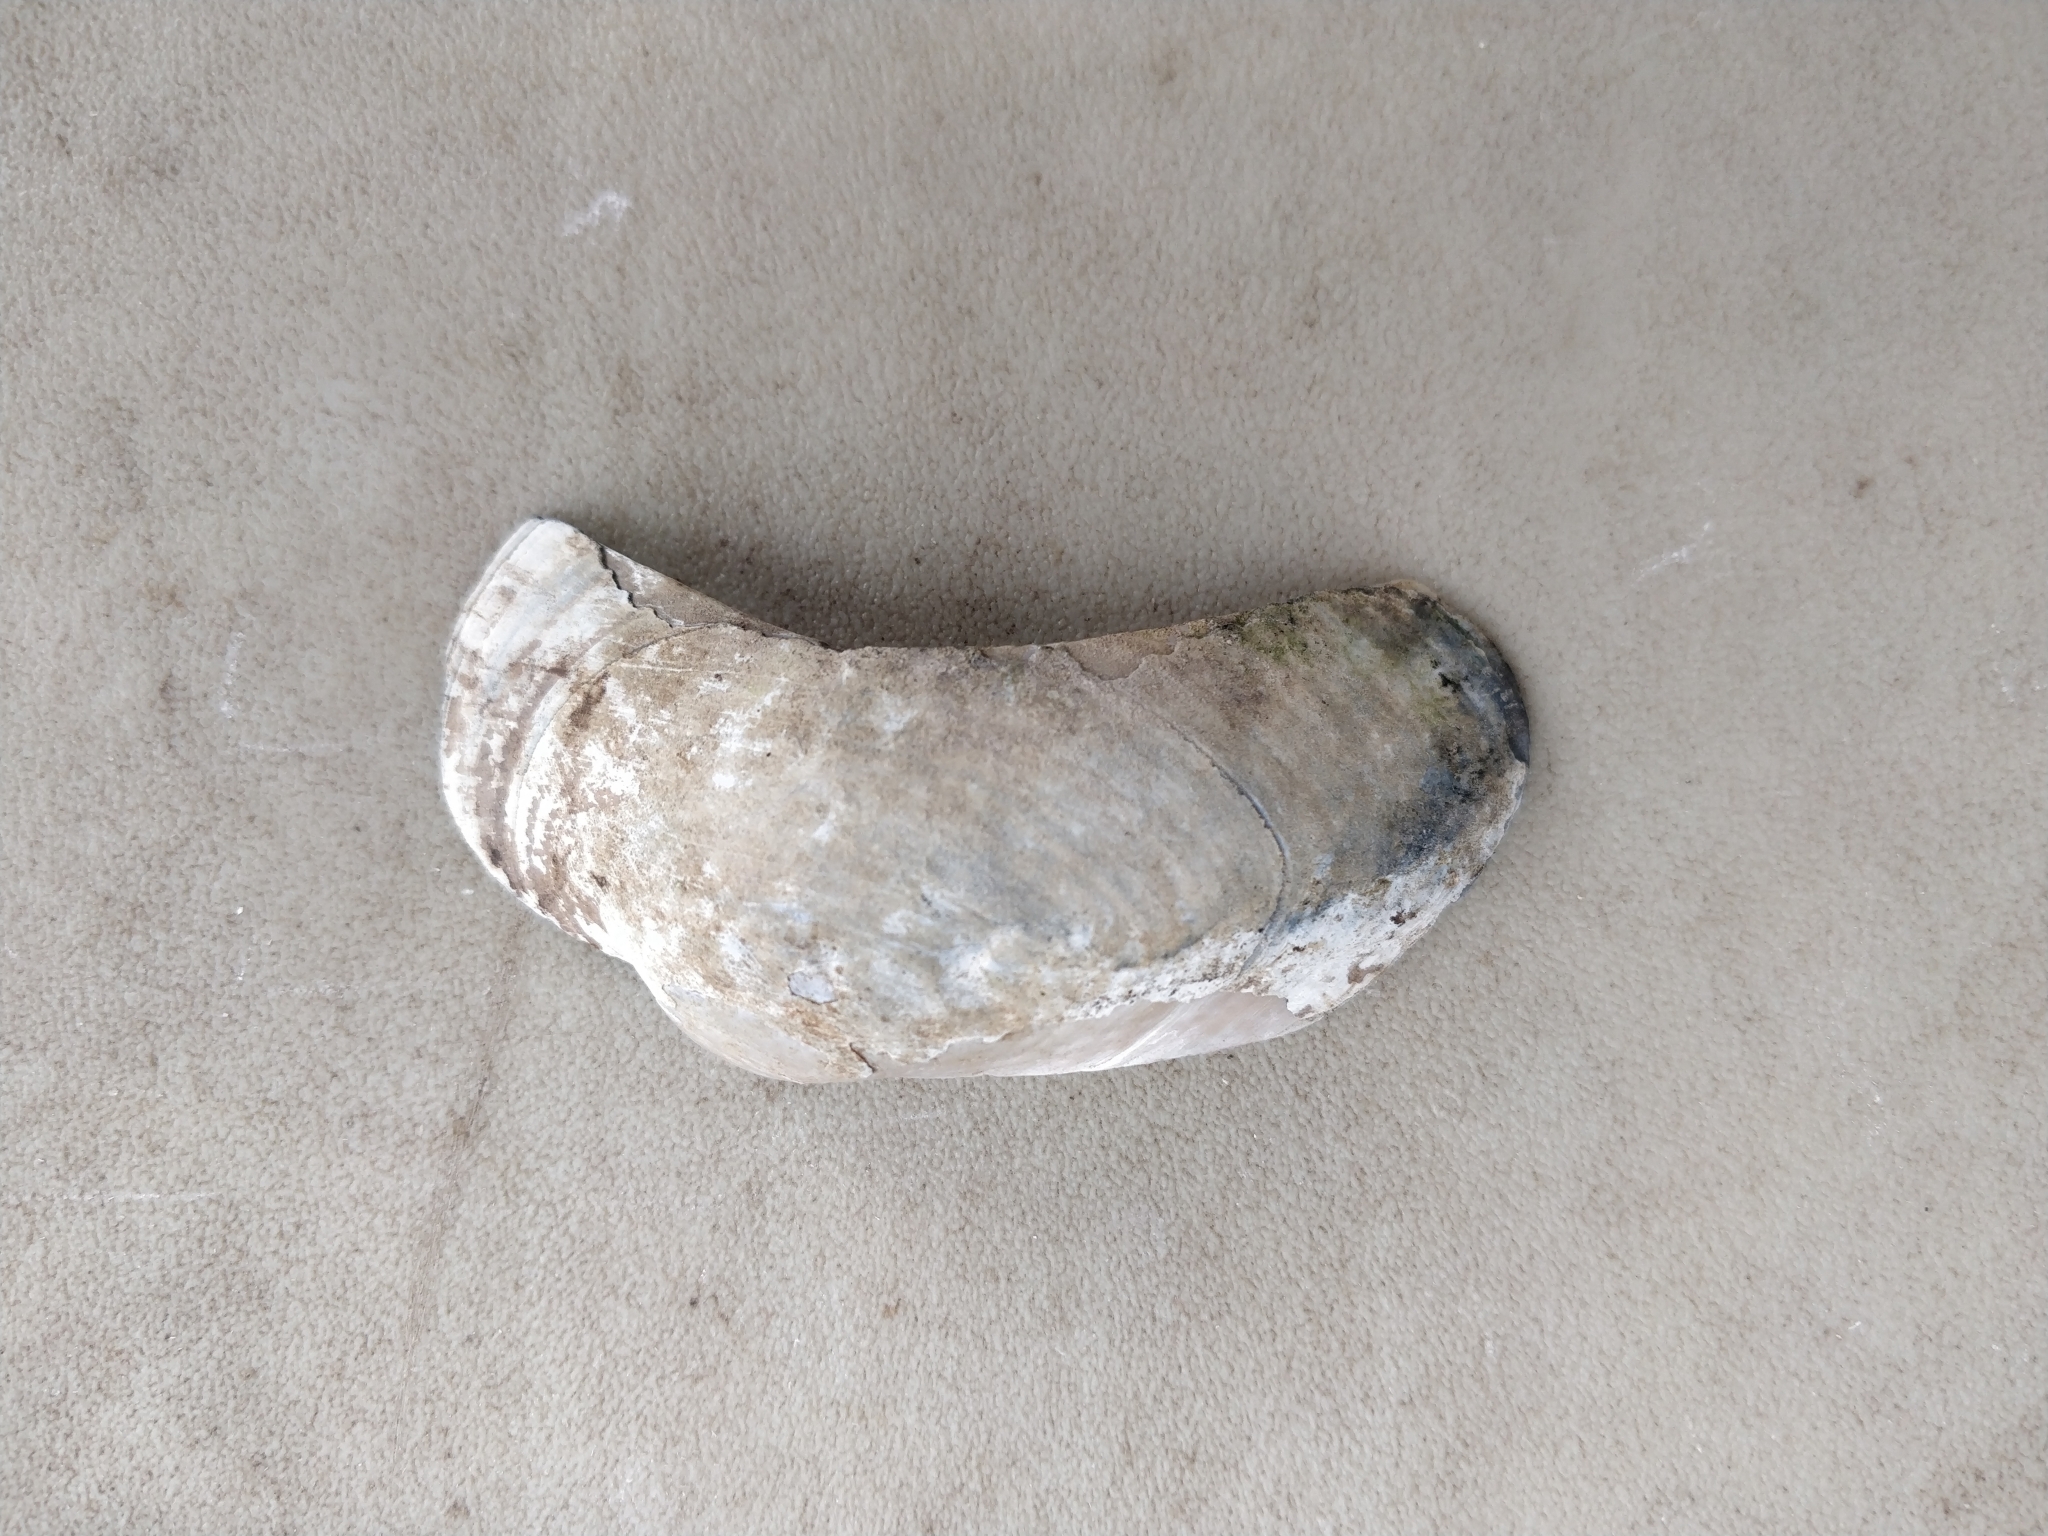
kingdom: Animalia
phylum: Mollusca
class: Bivalvia
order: Unionida
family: Unionidae
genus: Lampsilis
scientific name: Lampsilis cardium
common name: Plain pocketbook
